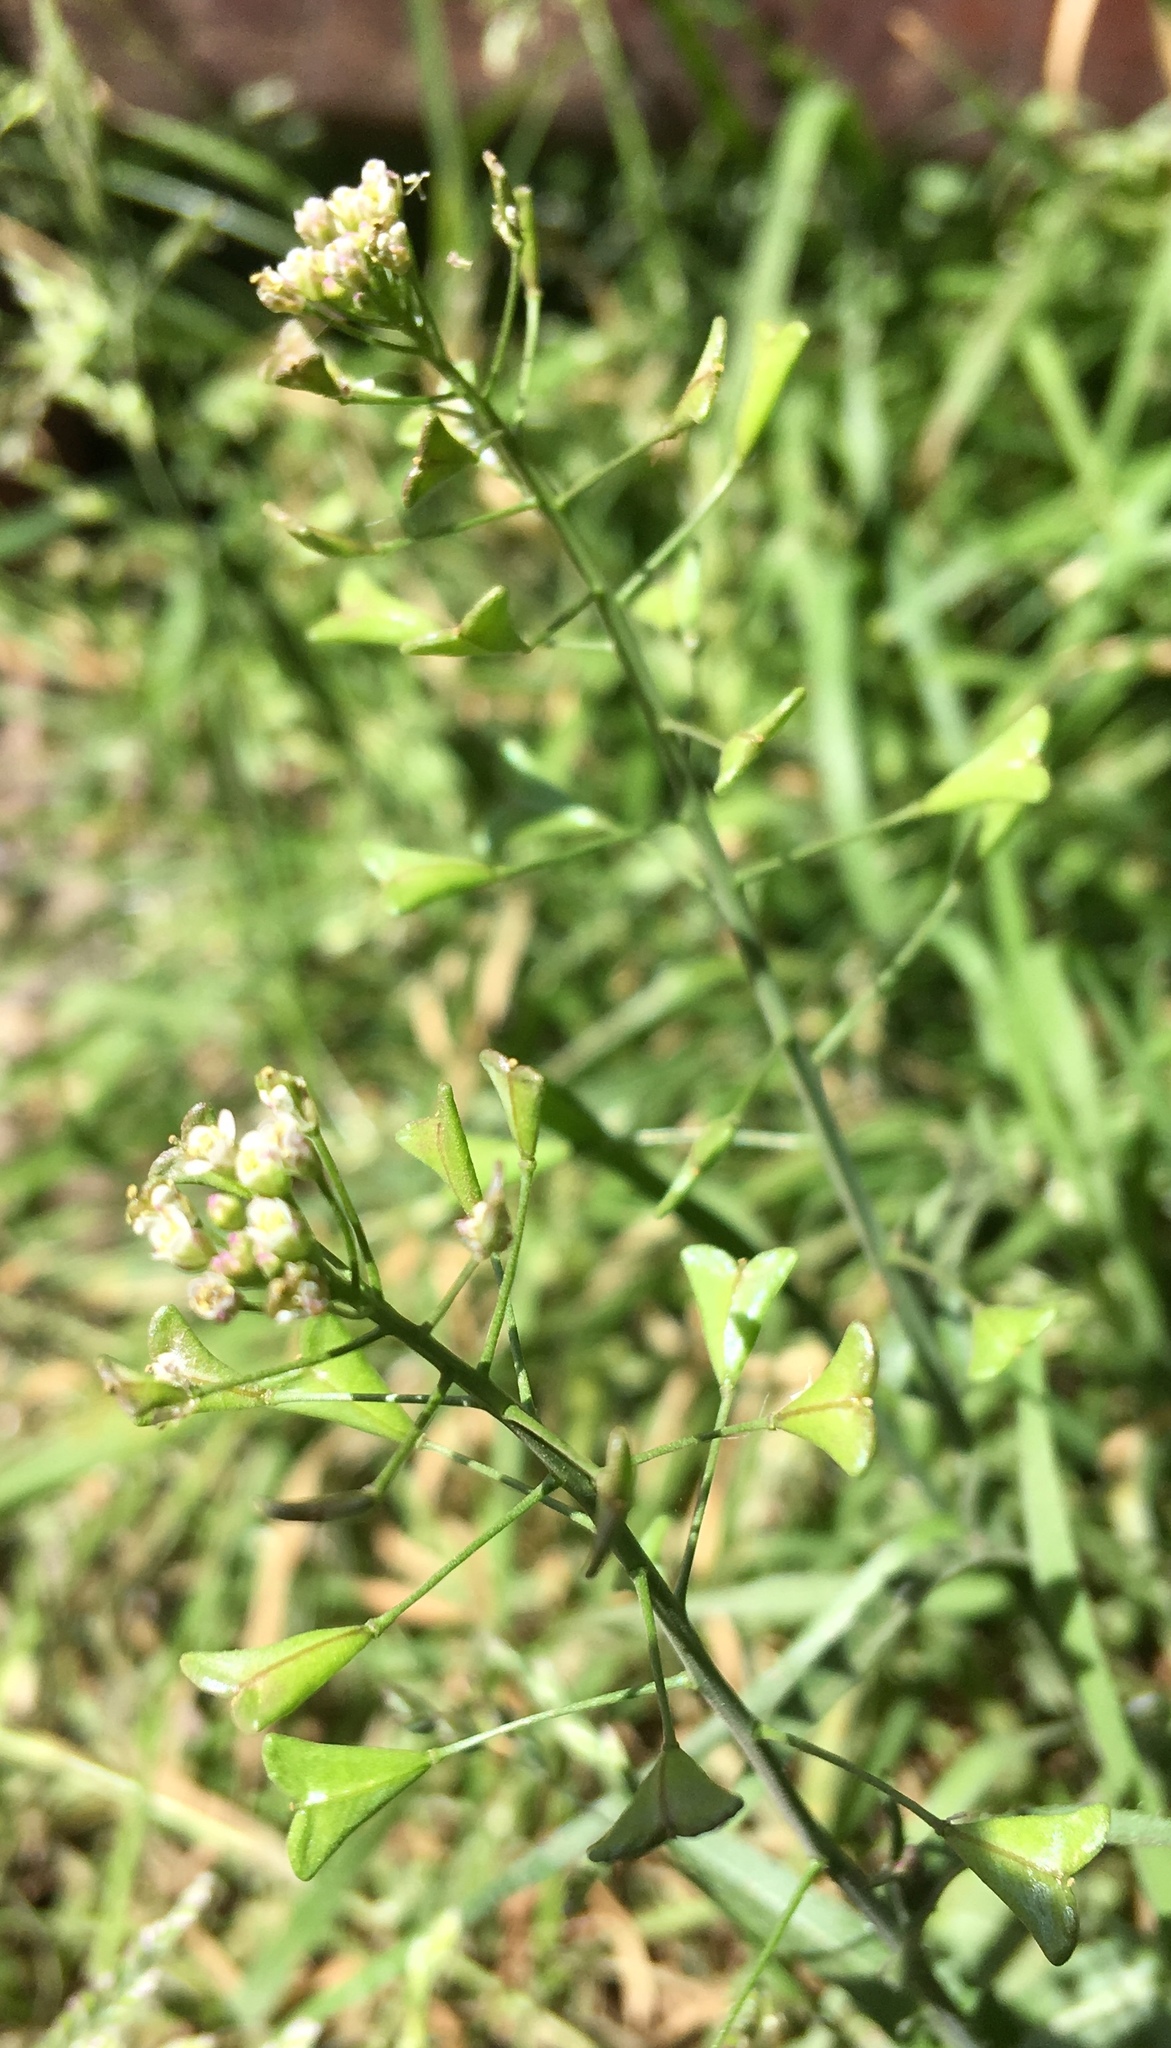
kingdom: Plantae
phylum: Tracheophyta
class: Magnoliopsida
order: Brassicales
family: Brassicaceae
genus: Capsella
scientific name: Capsella bursa-pastoris
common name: Shepherd's purse
